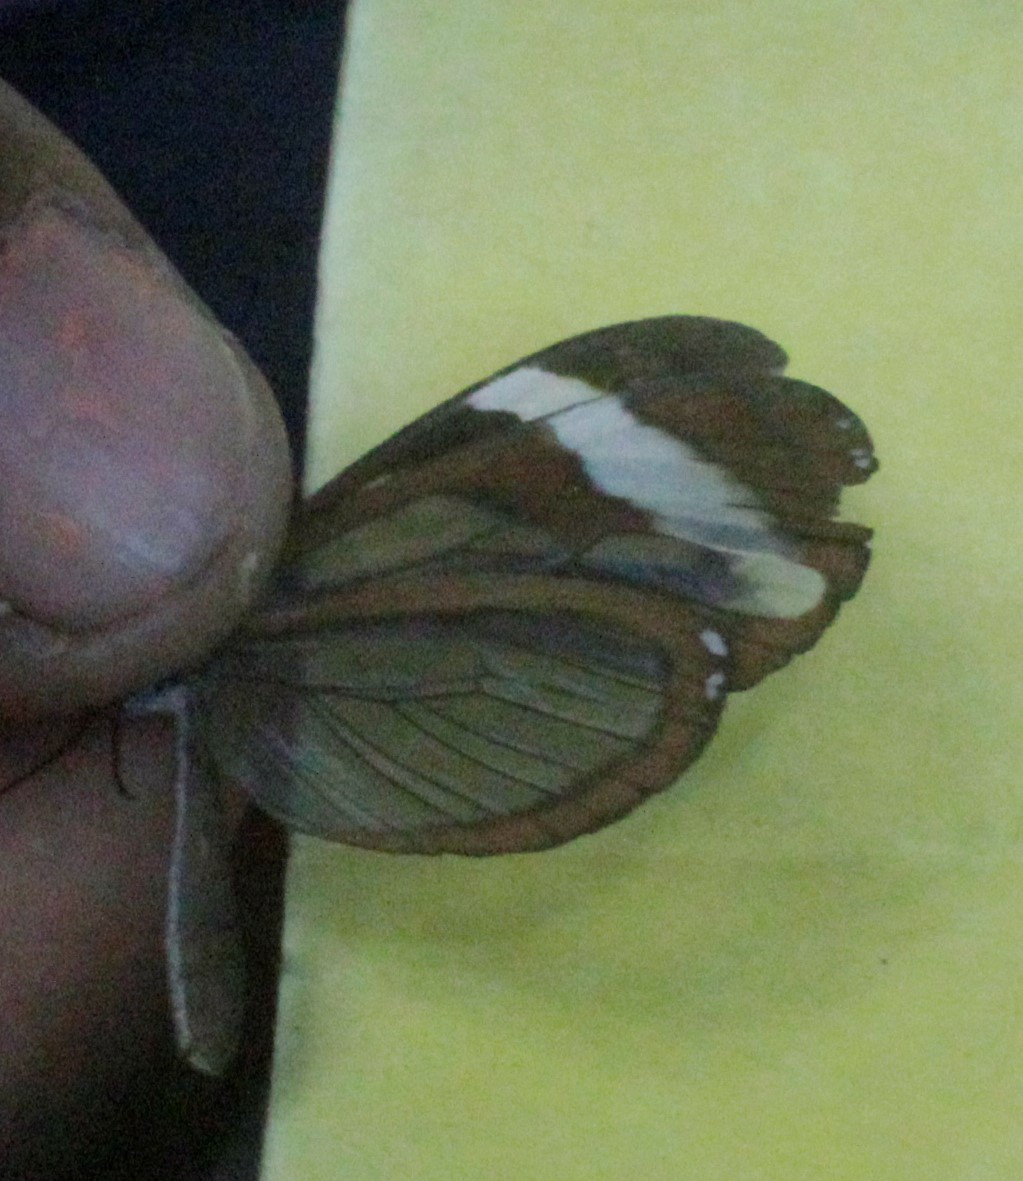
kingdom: Animalia
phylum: Arthropoda
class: Insecta
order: Lepidoptera
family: Nymphalidae
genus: Ithomia
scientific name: Ithomia patilla
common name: Patilla clearwing
